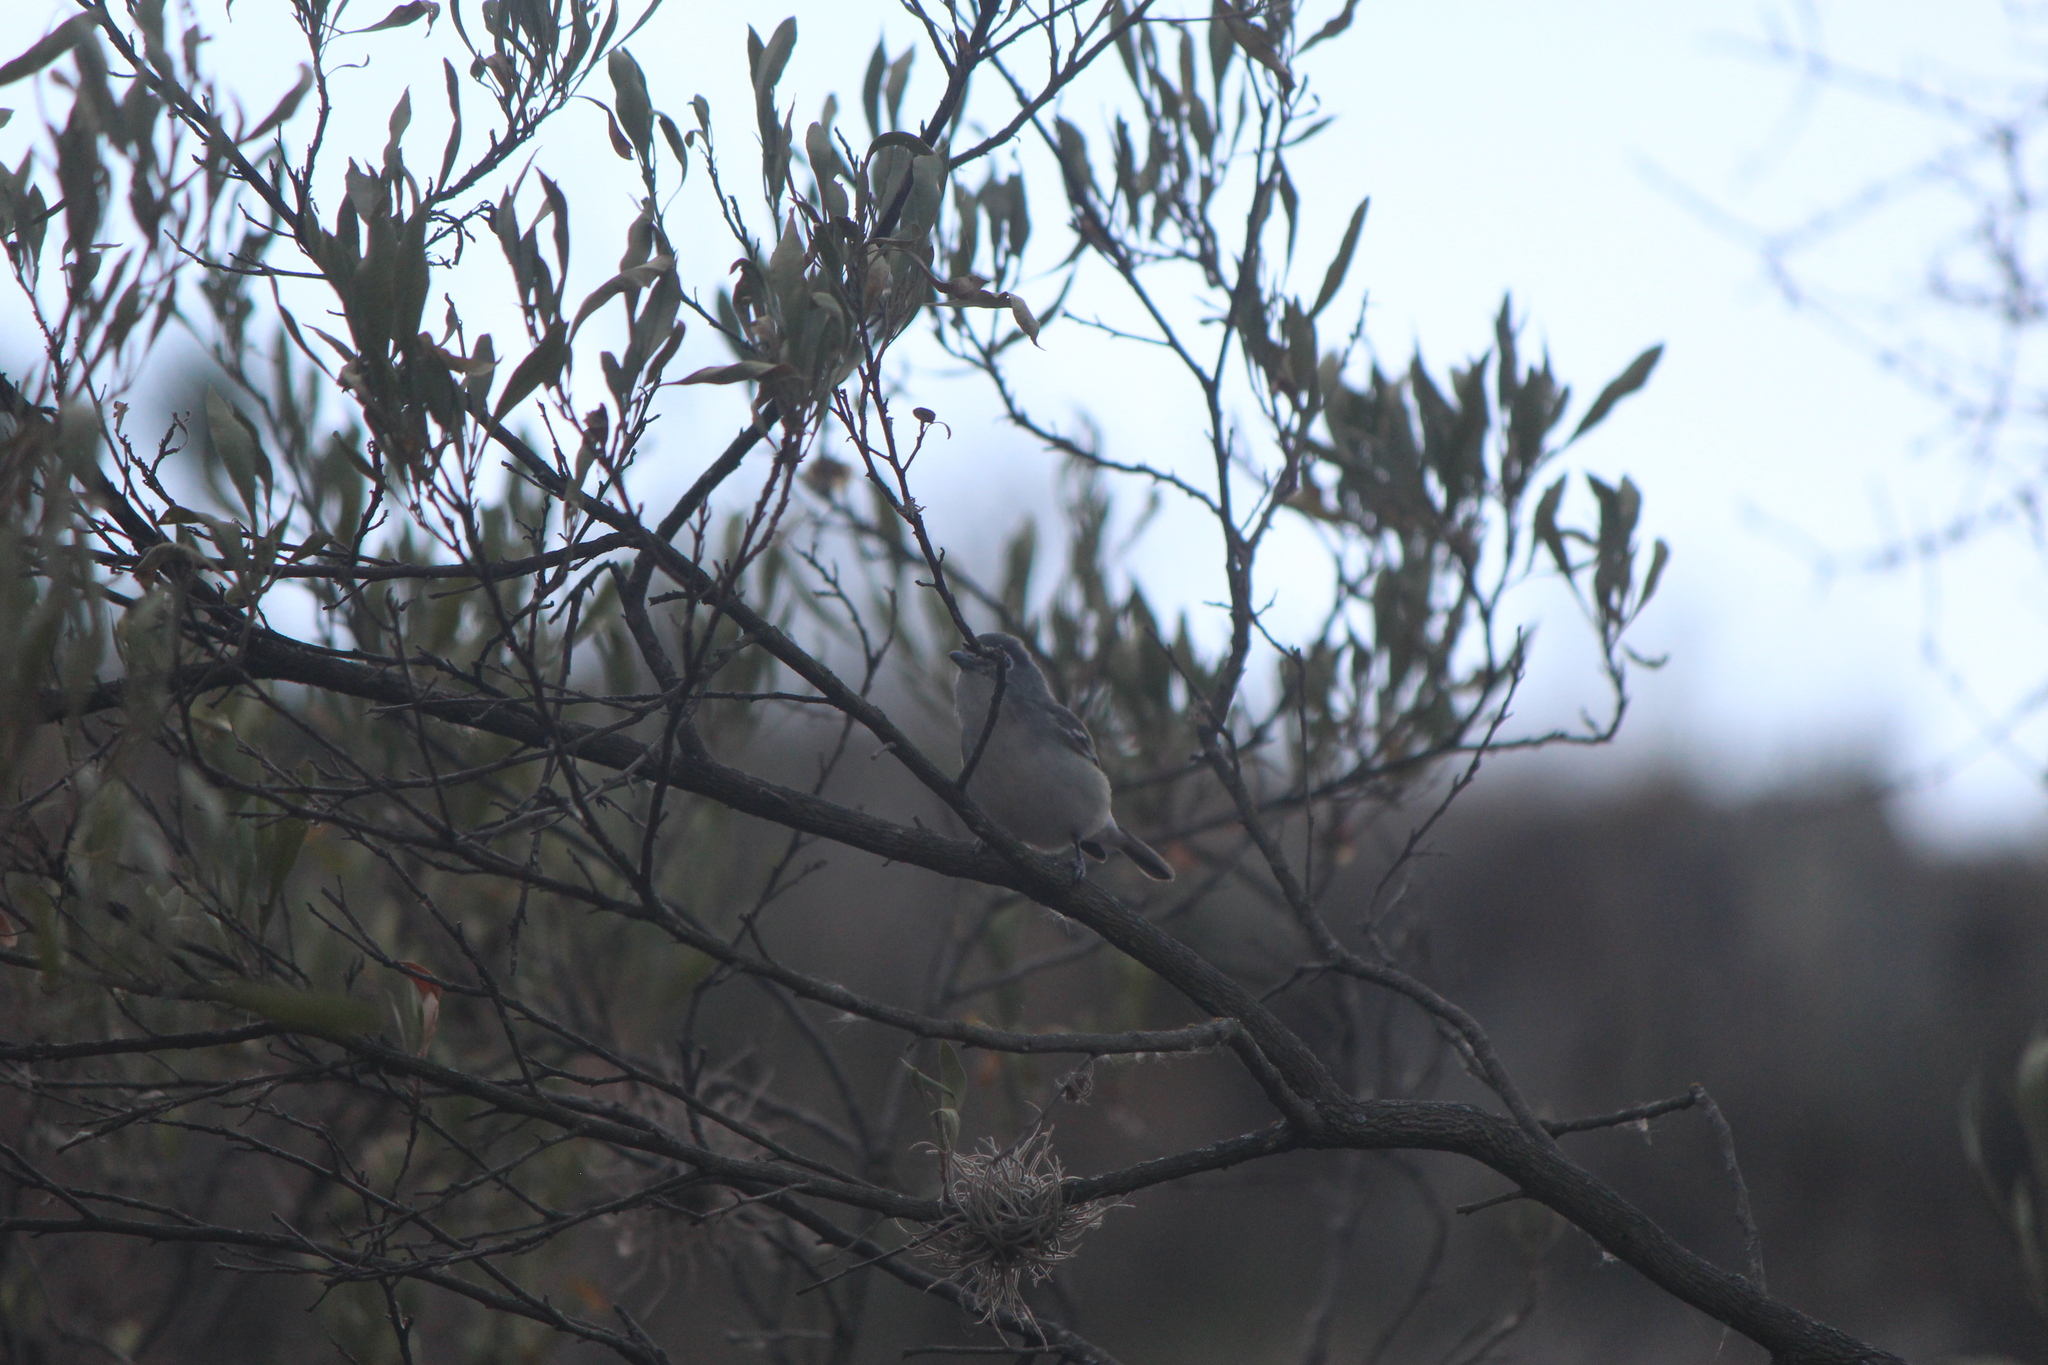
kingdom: Animalia
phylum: Chordata
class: Aves
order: Passeriformes
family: Vireonidae
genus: Vireo
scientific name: Vireo plumbeus
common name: Plumbeous vireo
